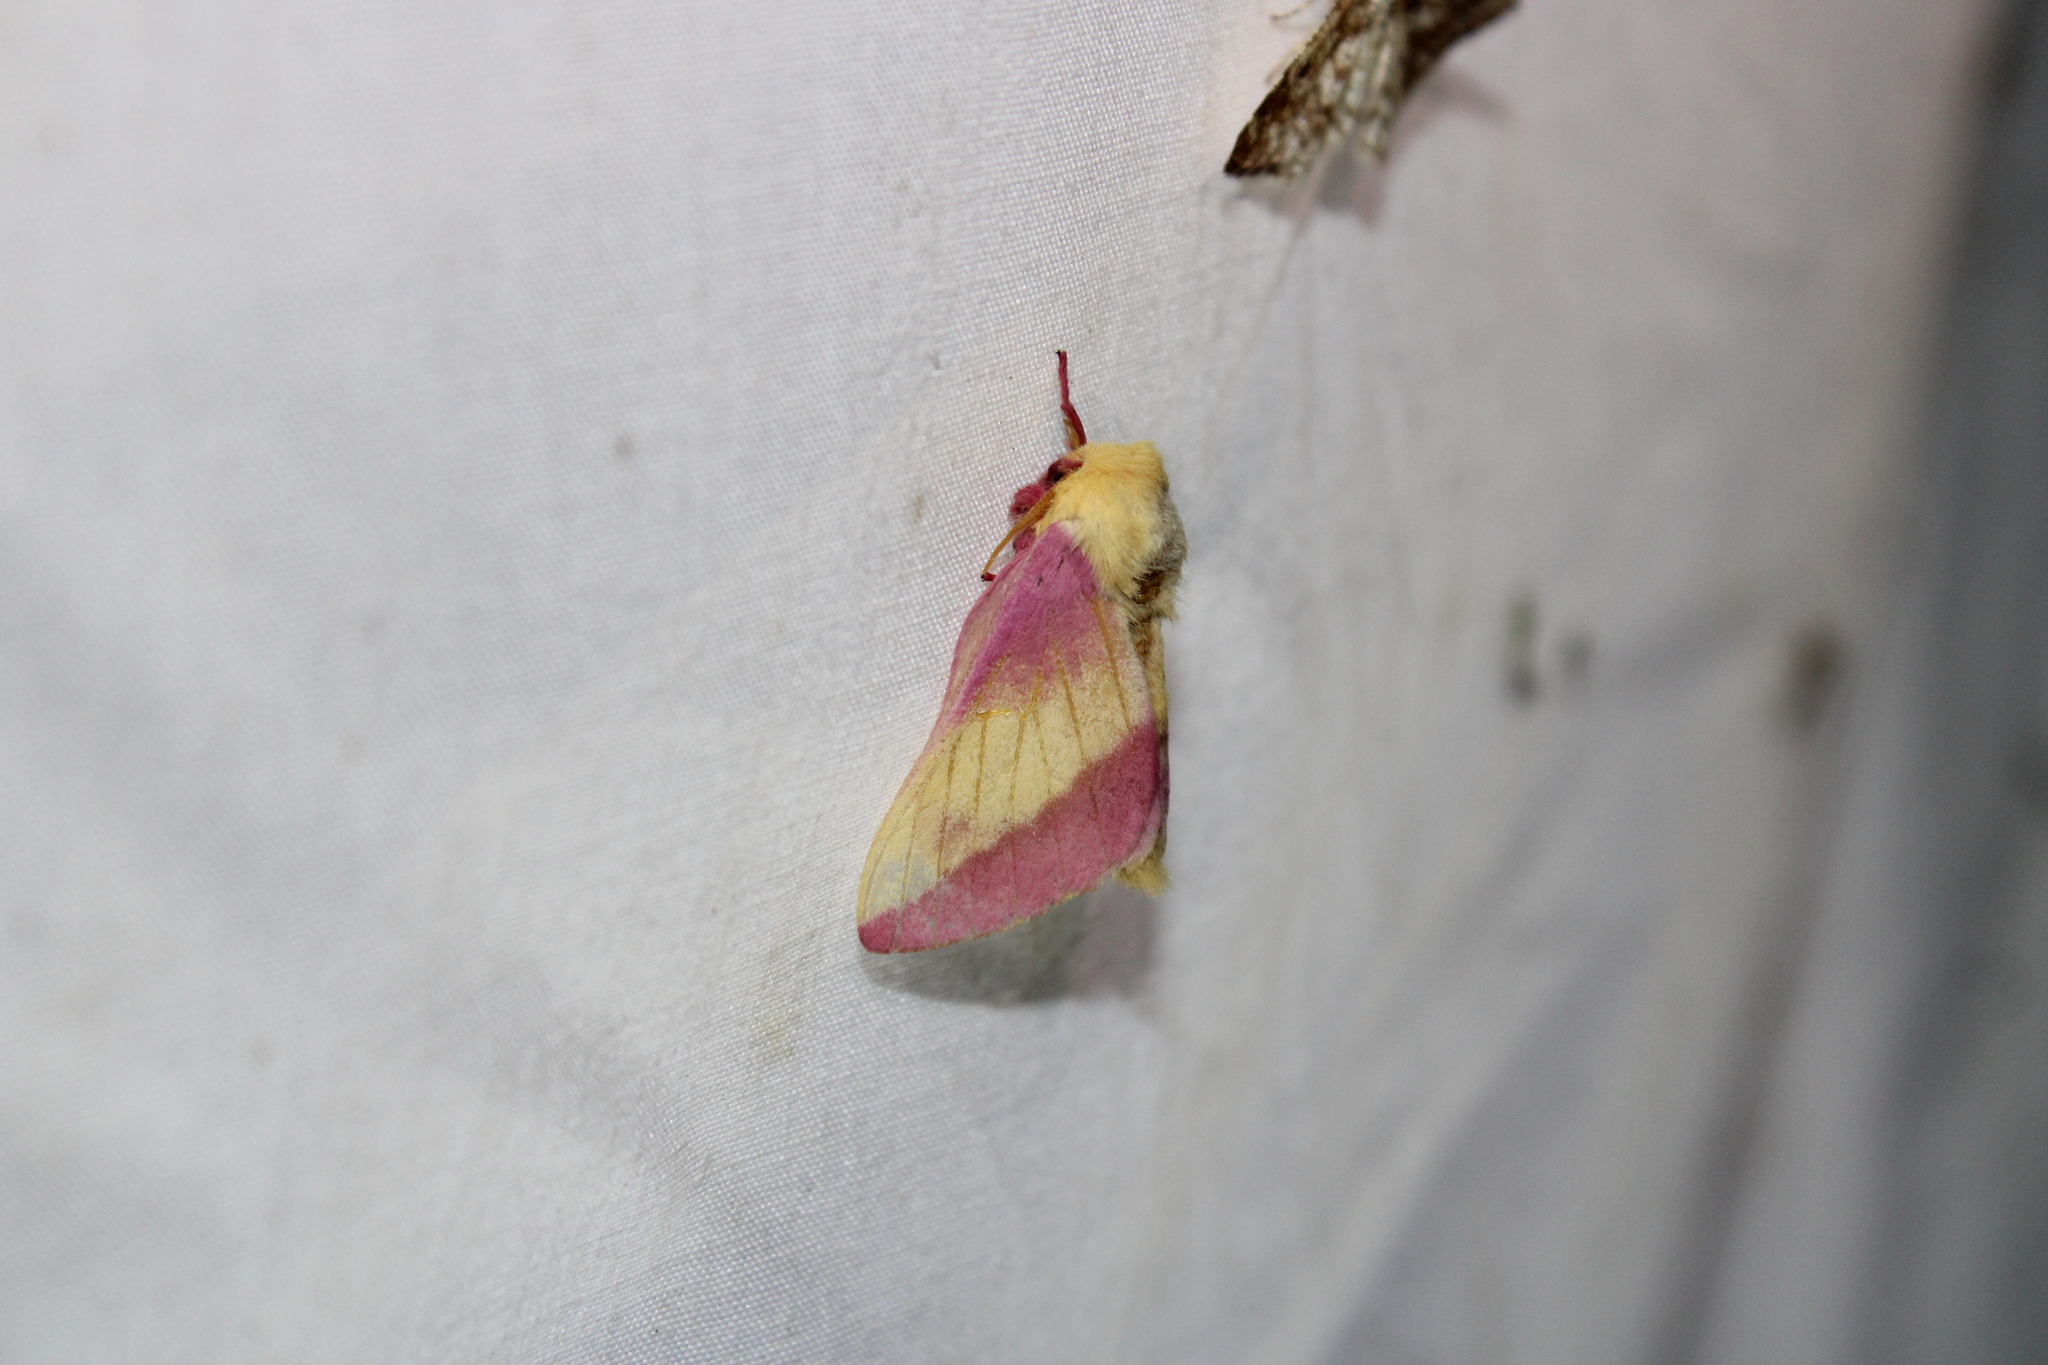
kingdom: Animalia
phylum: Arthropoda
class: Insecta
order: Lepidoptera
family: Saturniidae
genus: Dryocampa
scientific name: Dryocampa rubicunda
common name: Rosy maple moth
